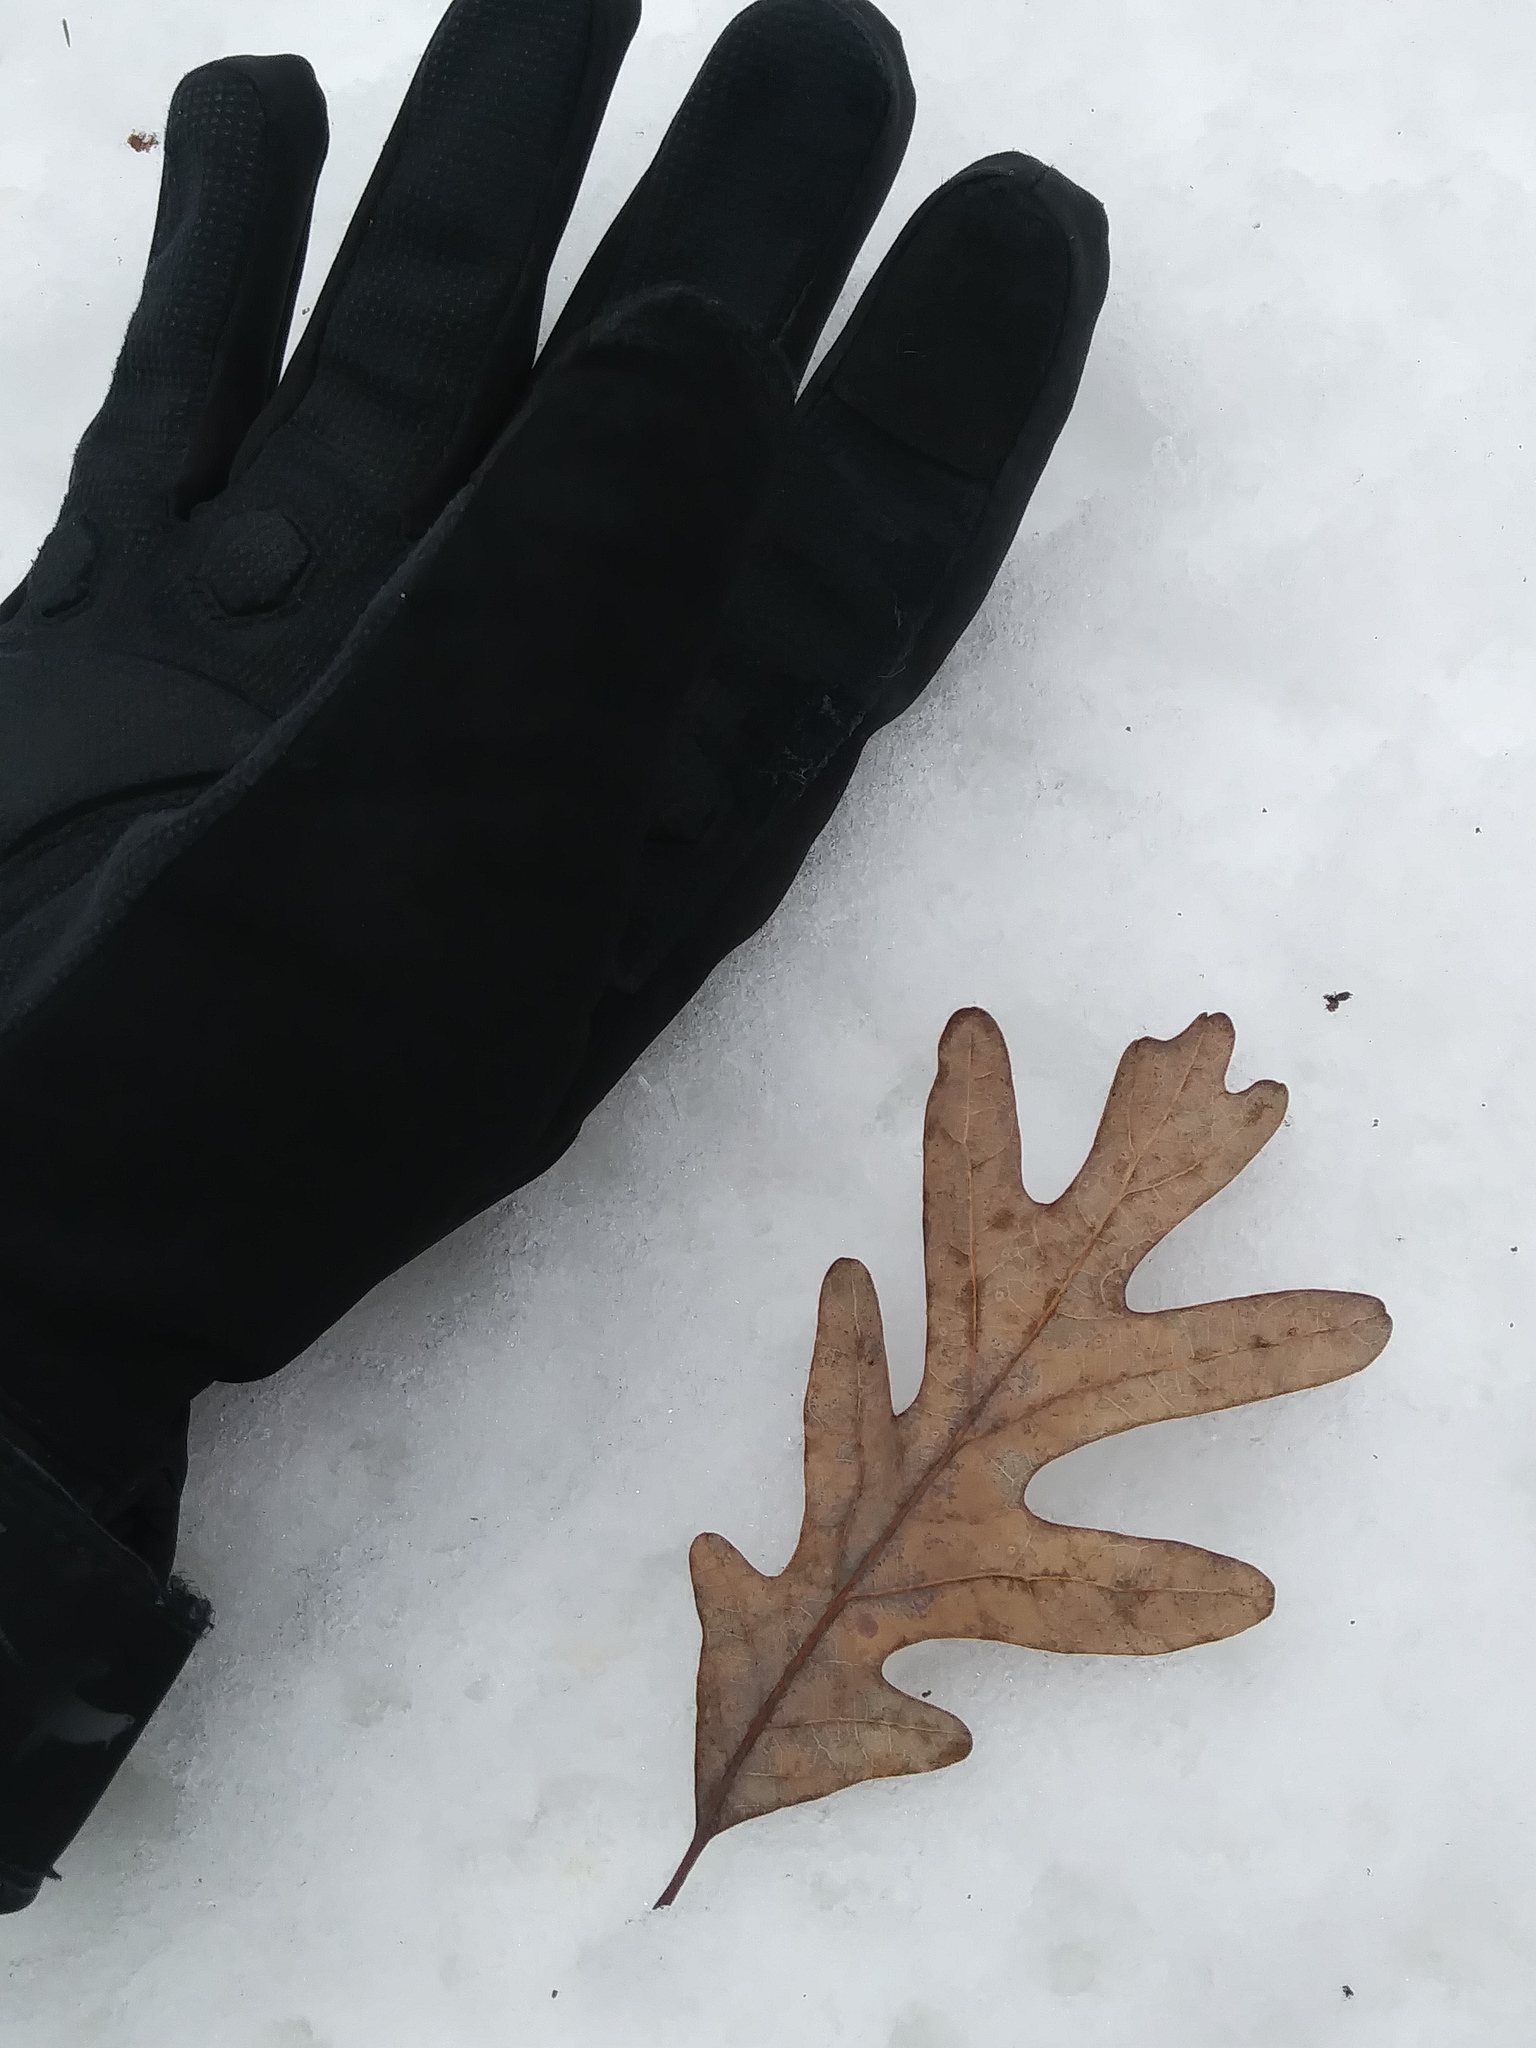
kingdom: Plantae
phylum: Tracheophyta
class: Magnoliopsida
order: Fagales
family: Fagaceae
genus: Quercus
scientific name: Quercus alba
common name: White oak
